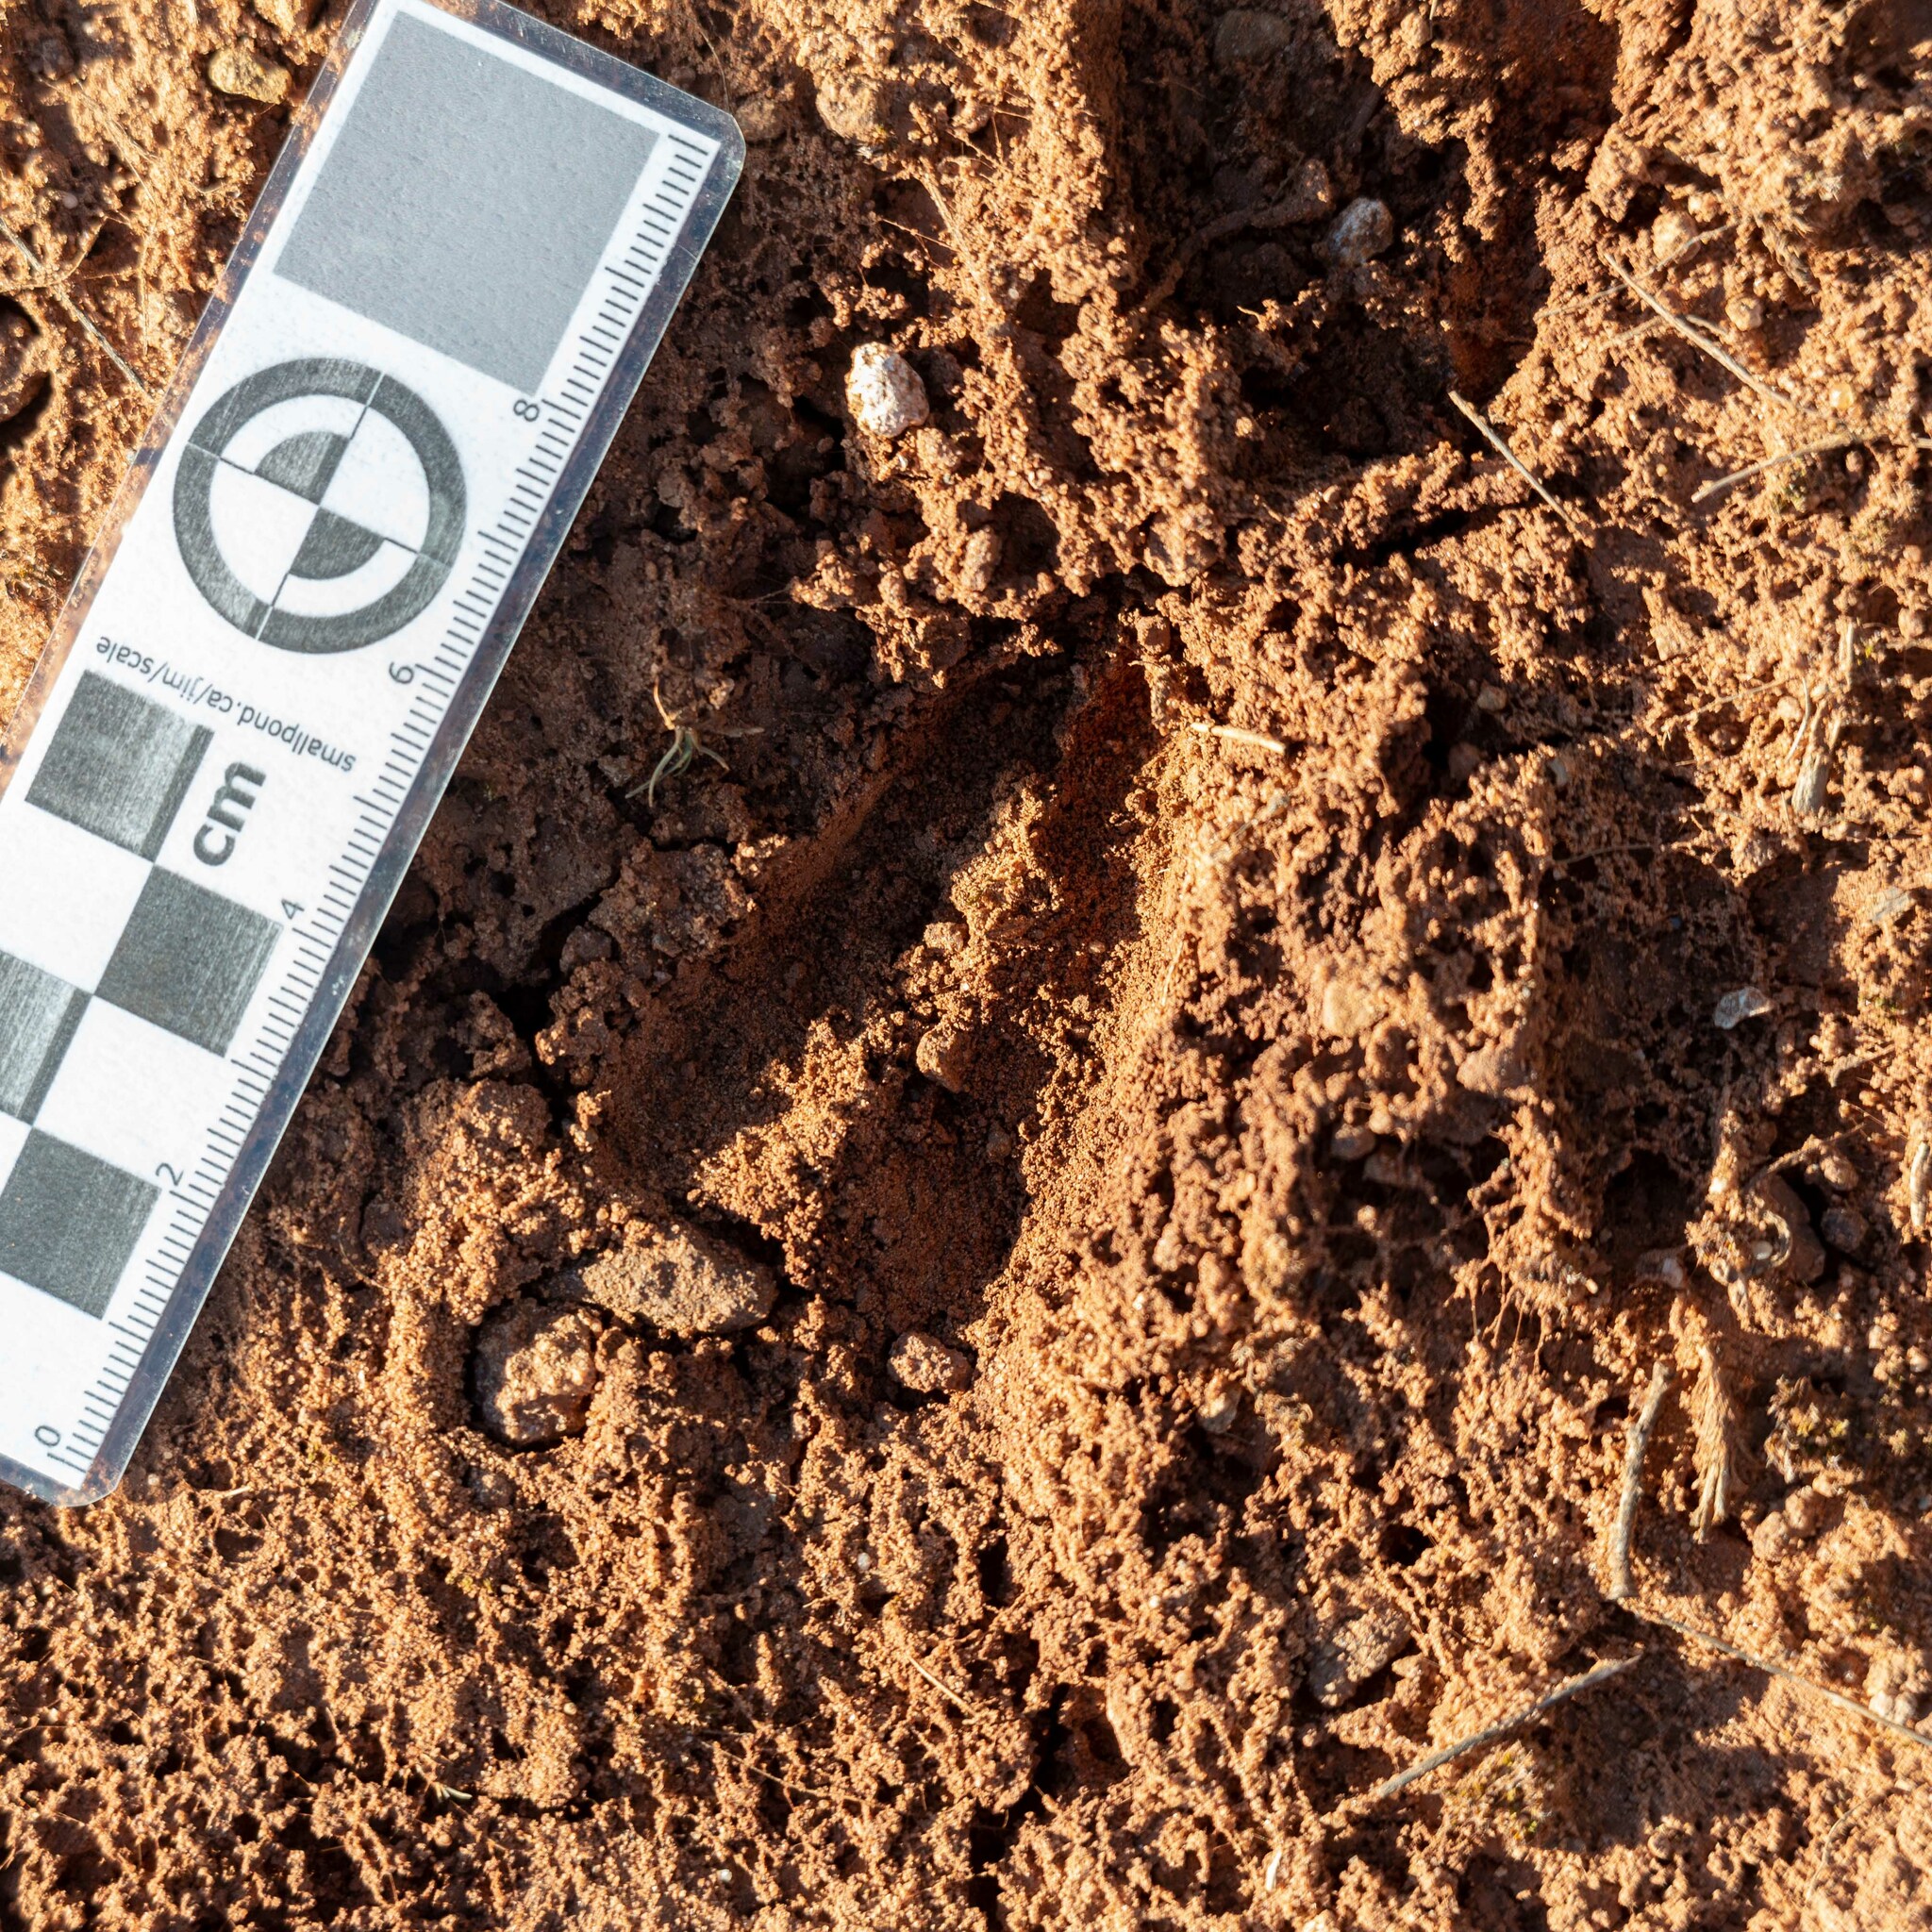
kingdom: Animalia
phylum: Chordata
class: Mammalia
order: Artiodactyla
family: Cervidae
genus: Capreolus
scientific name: Capreolus capreolus
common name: Western roe deer
